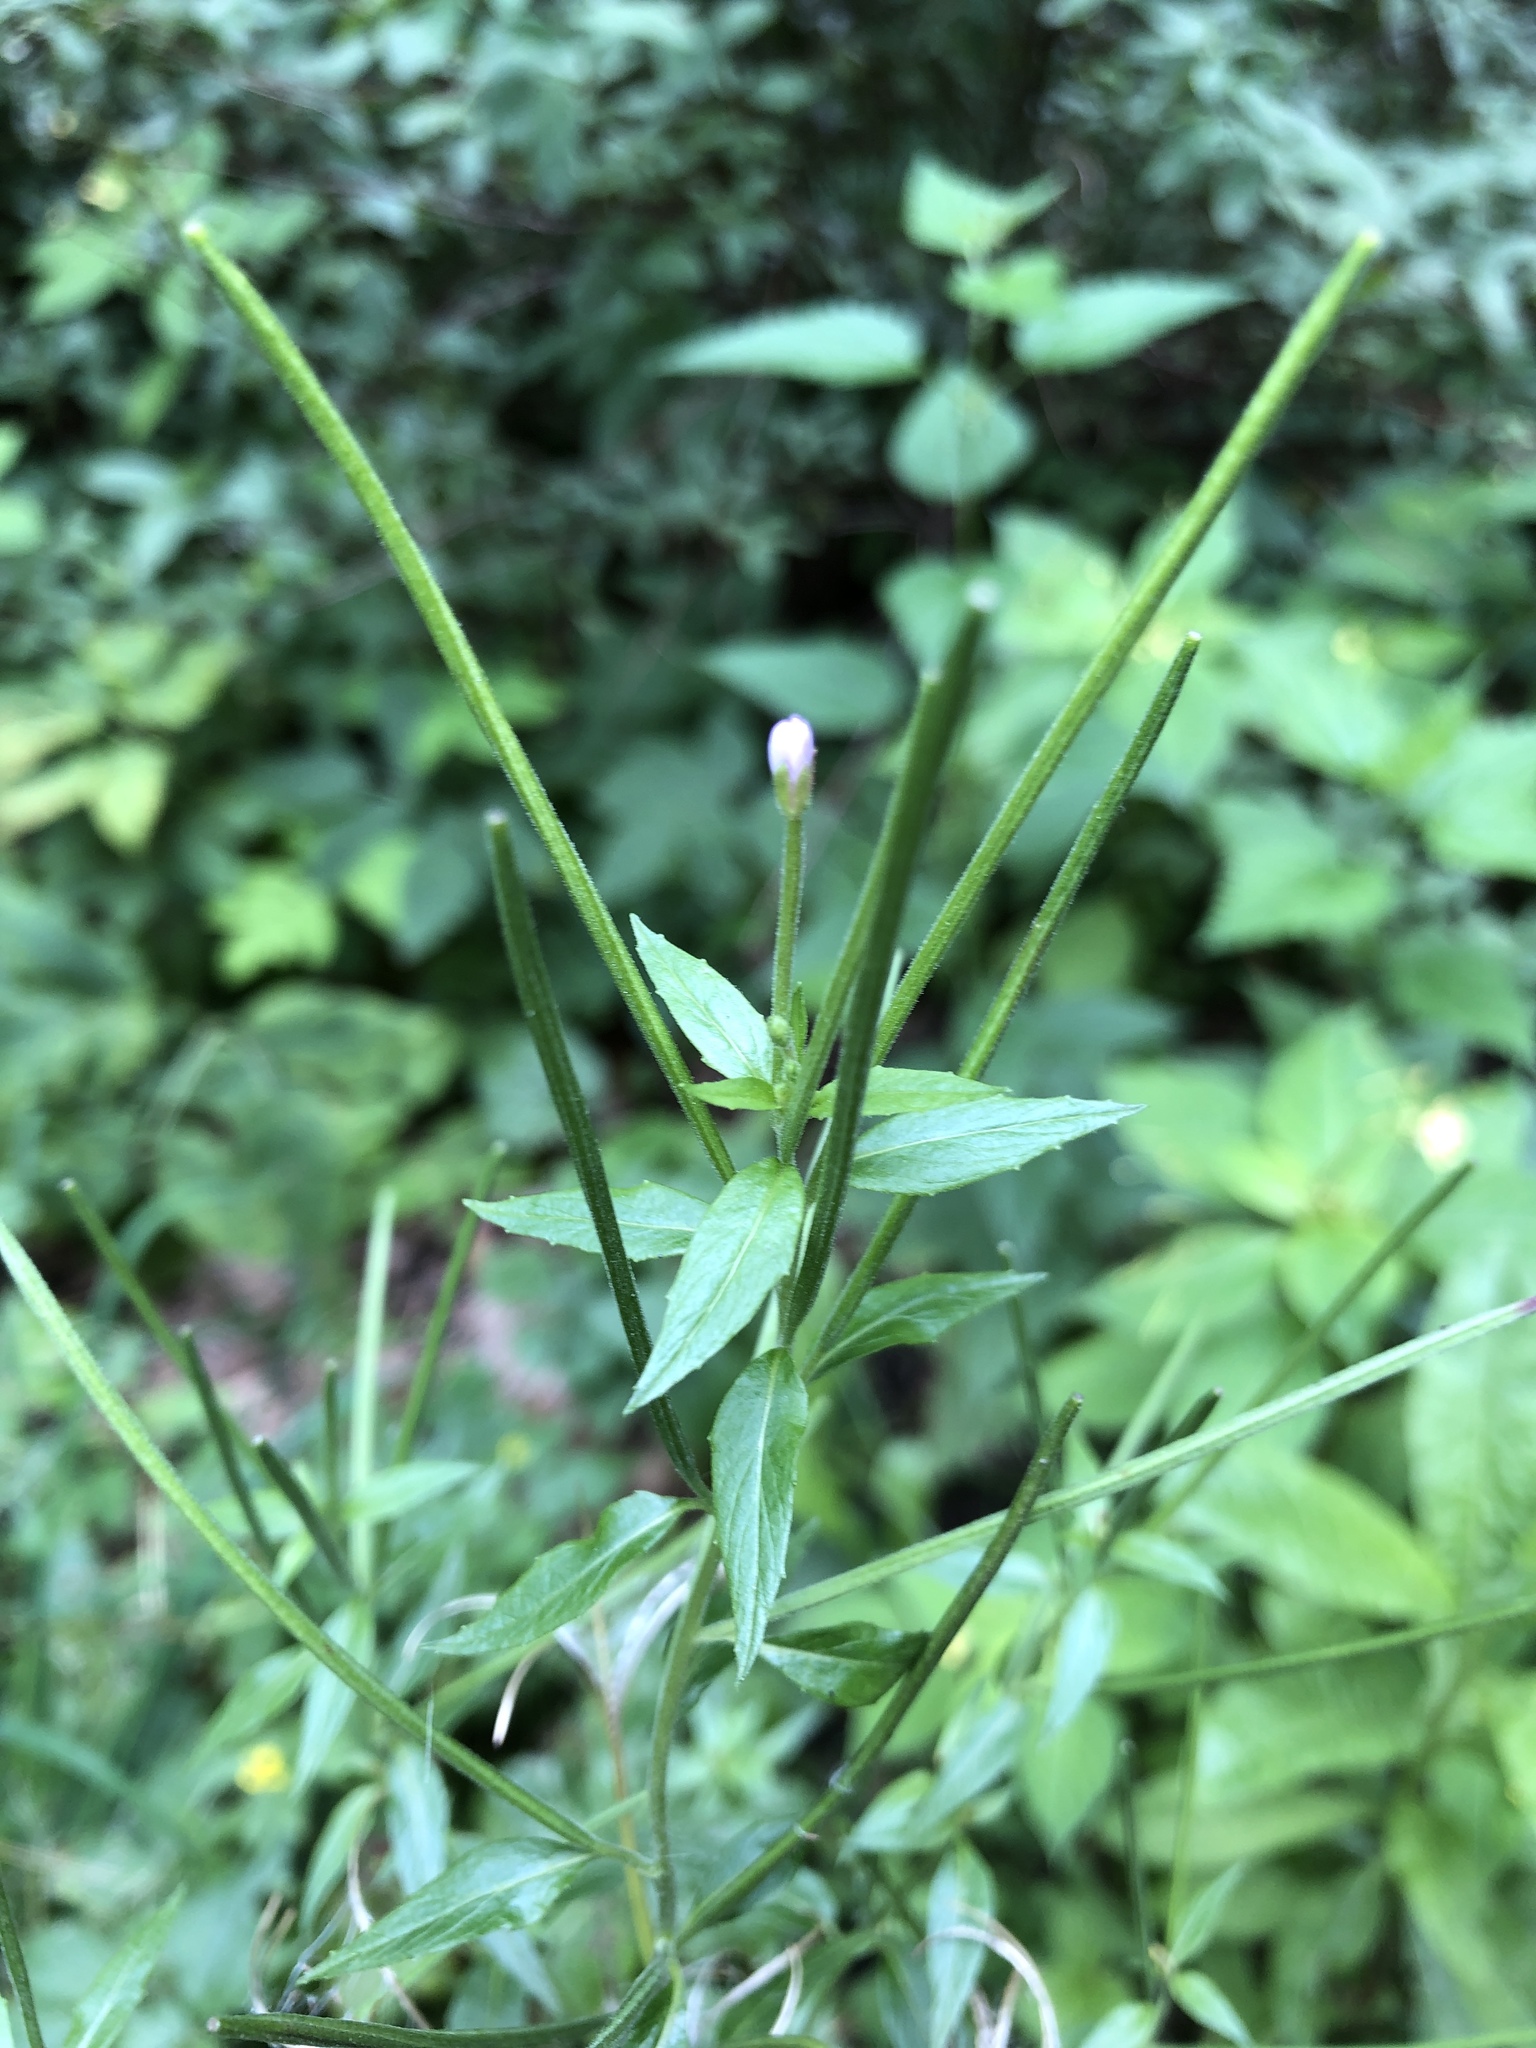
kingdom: Plantae
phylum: Tracheophyta
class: Magnoliopsida
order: Myrtales
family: Onagraceae
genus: Epilobium
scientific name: Epilobium ciliatum
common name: American willowherb
